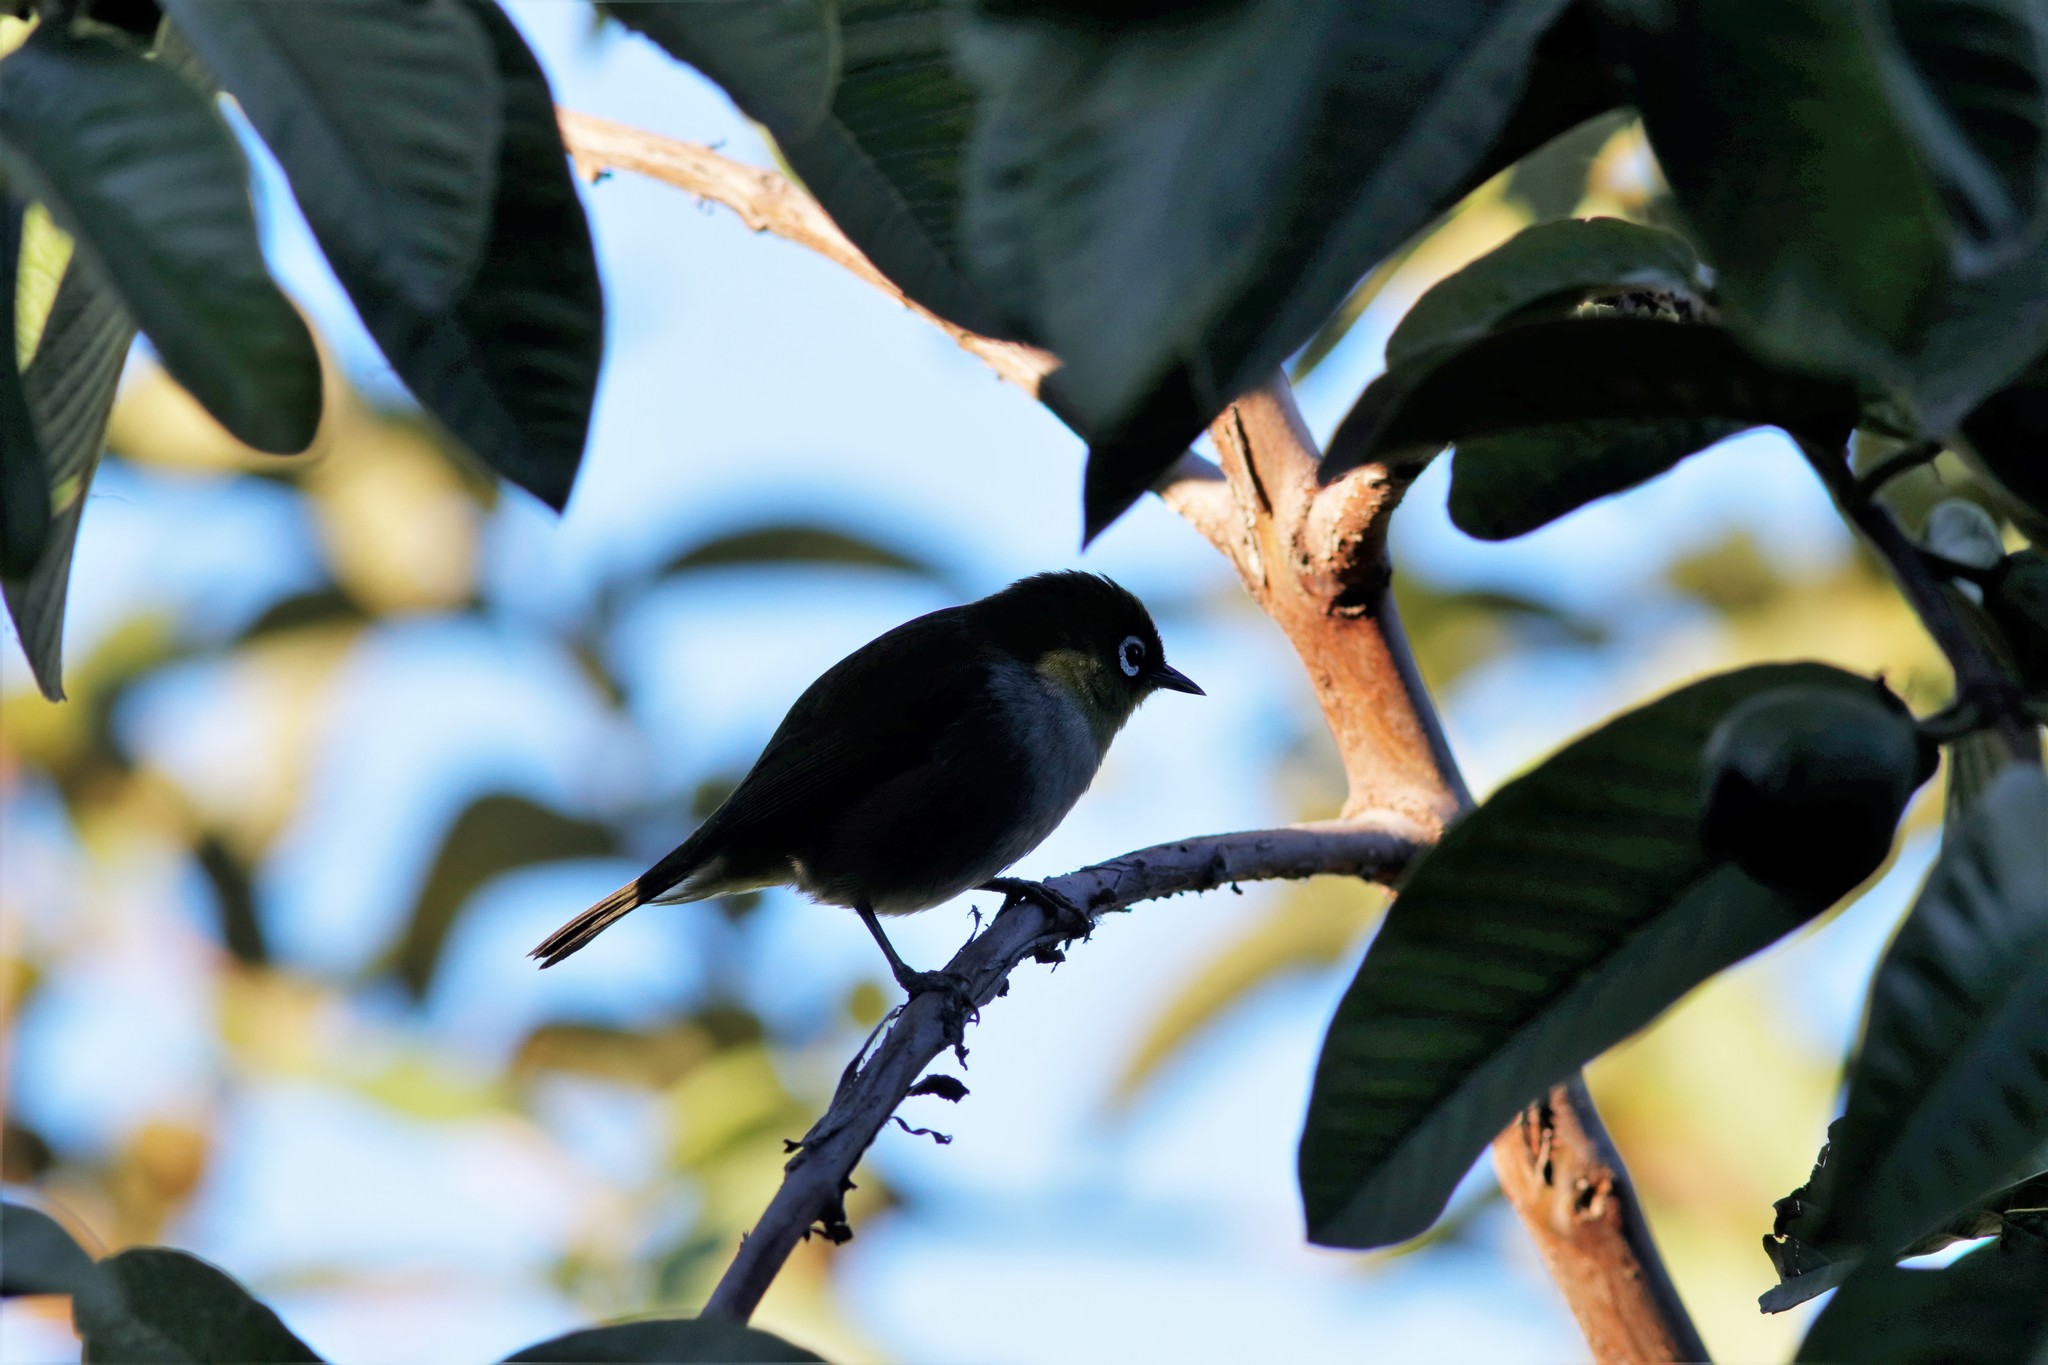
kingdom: Animalia
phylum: Chordata
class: Aves
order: Passeriformes
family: Zosteropidae
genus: Zosterops
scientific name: Zosterops virens
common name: Cape white-eye
